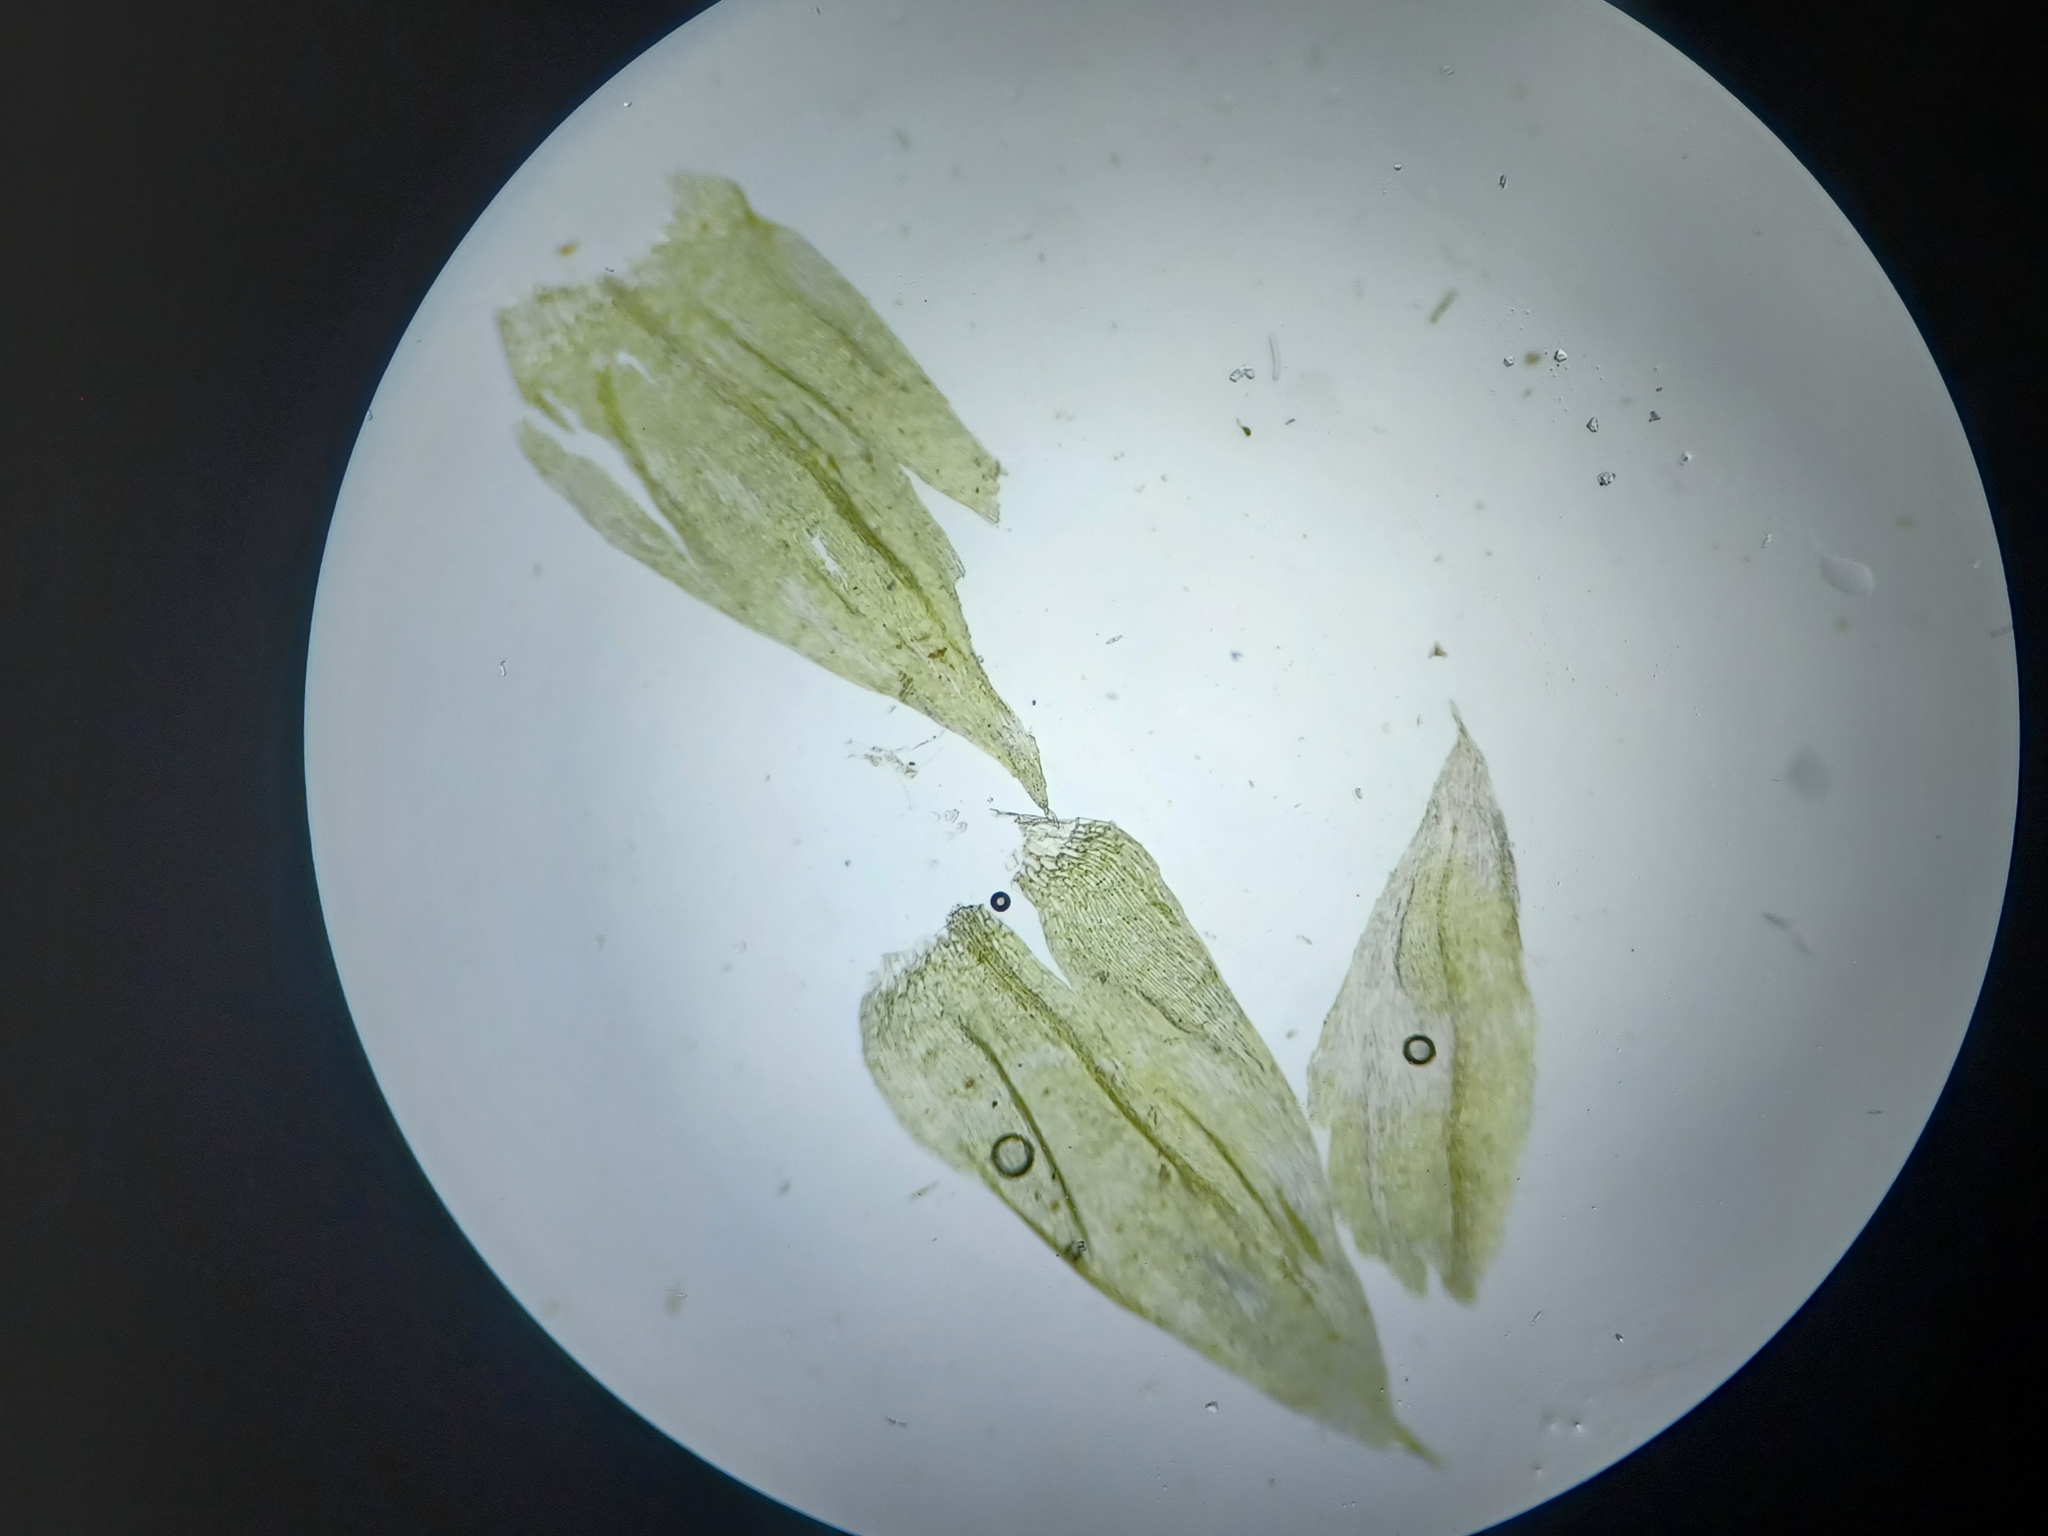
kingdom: Plantae
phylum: Bryophyta
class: Bryopsida
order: Hypnales
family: Brachytheciaceae
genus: Brachythecium
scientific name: Brachythecium rivulare
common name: River ragged moss
